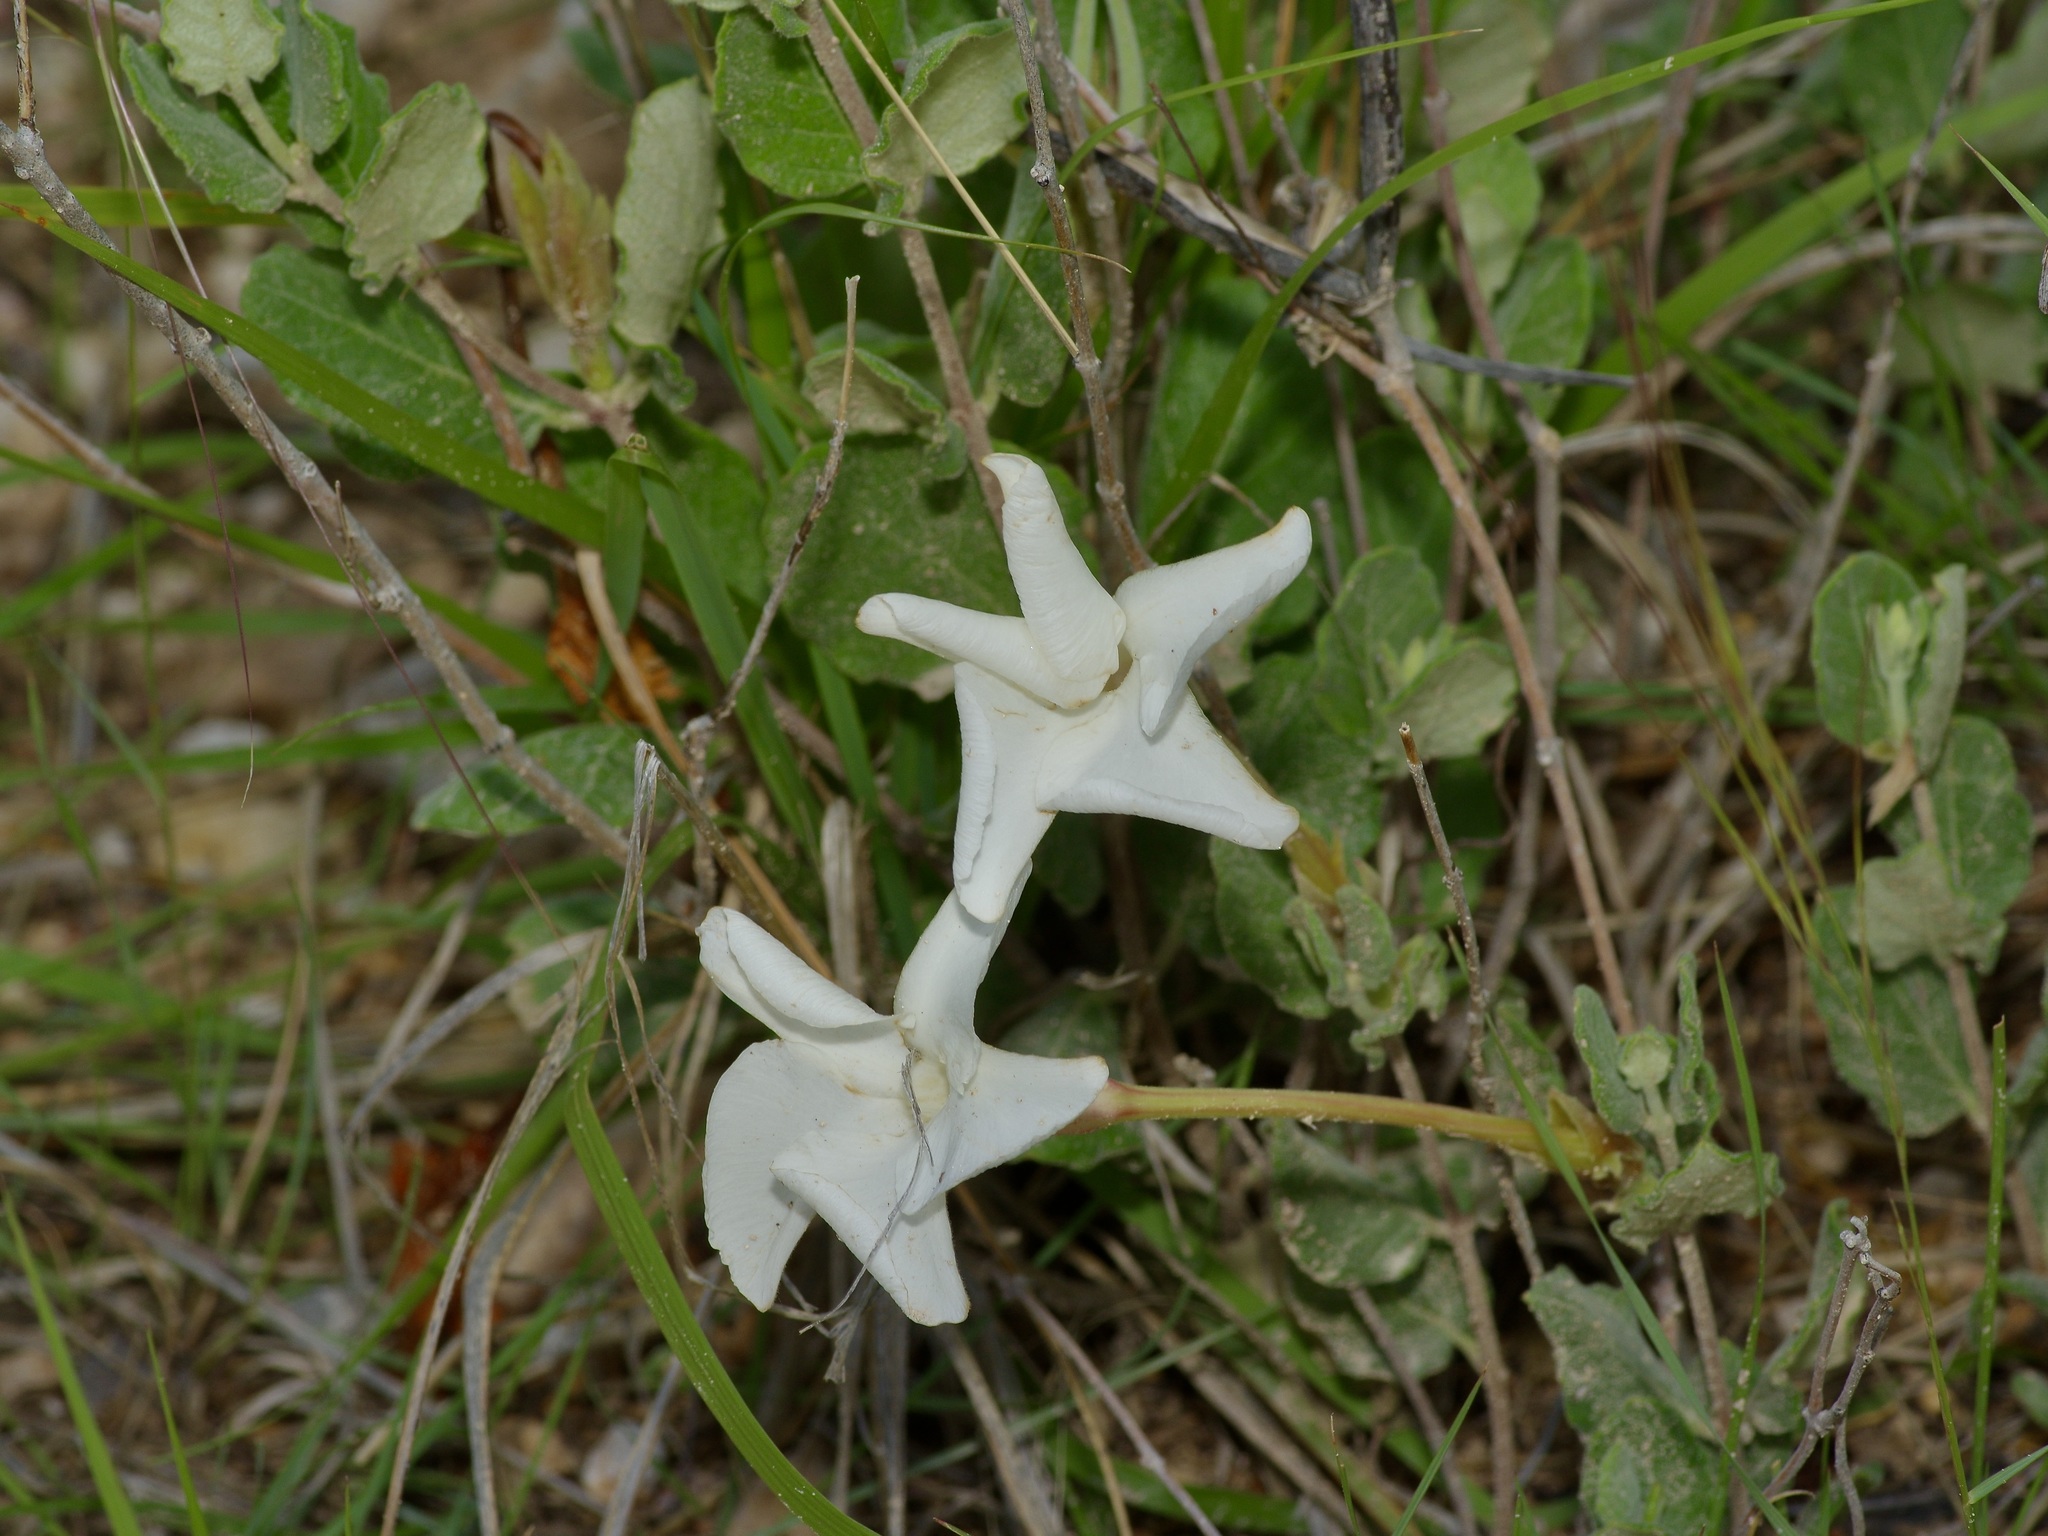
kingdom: Plantae
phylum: Tracheophyta
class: Magnoliopsida
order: Gentianales
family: Apocynaceae
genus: Mandevilla
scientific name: Mandevilla macrosiphon
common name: Plateau rocktrumpet
